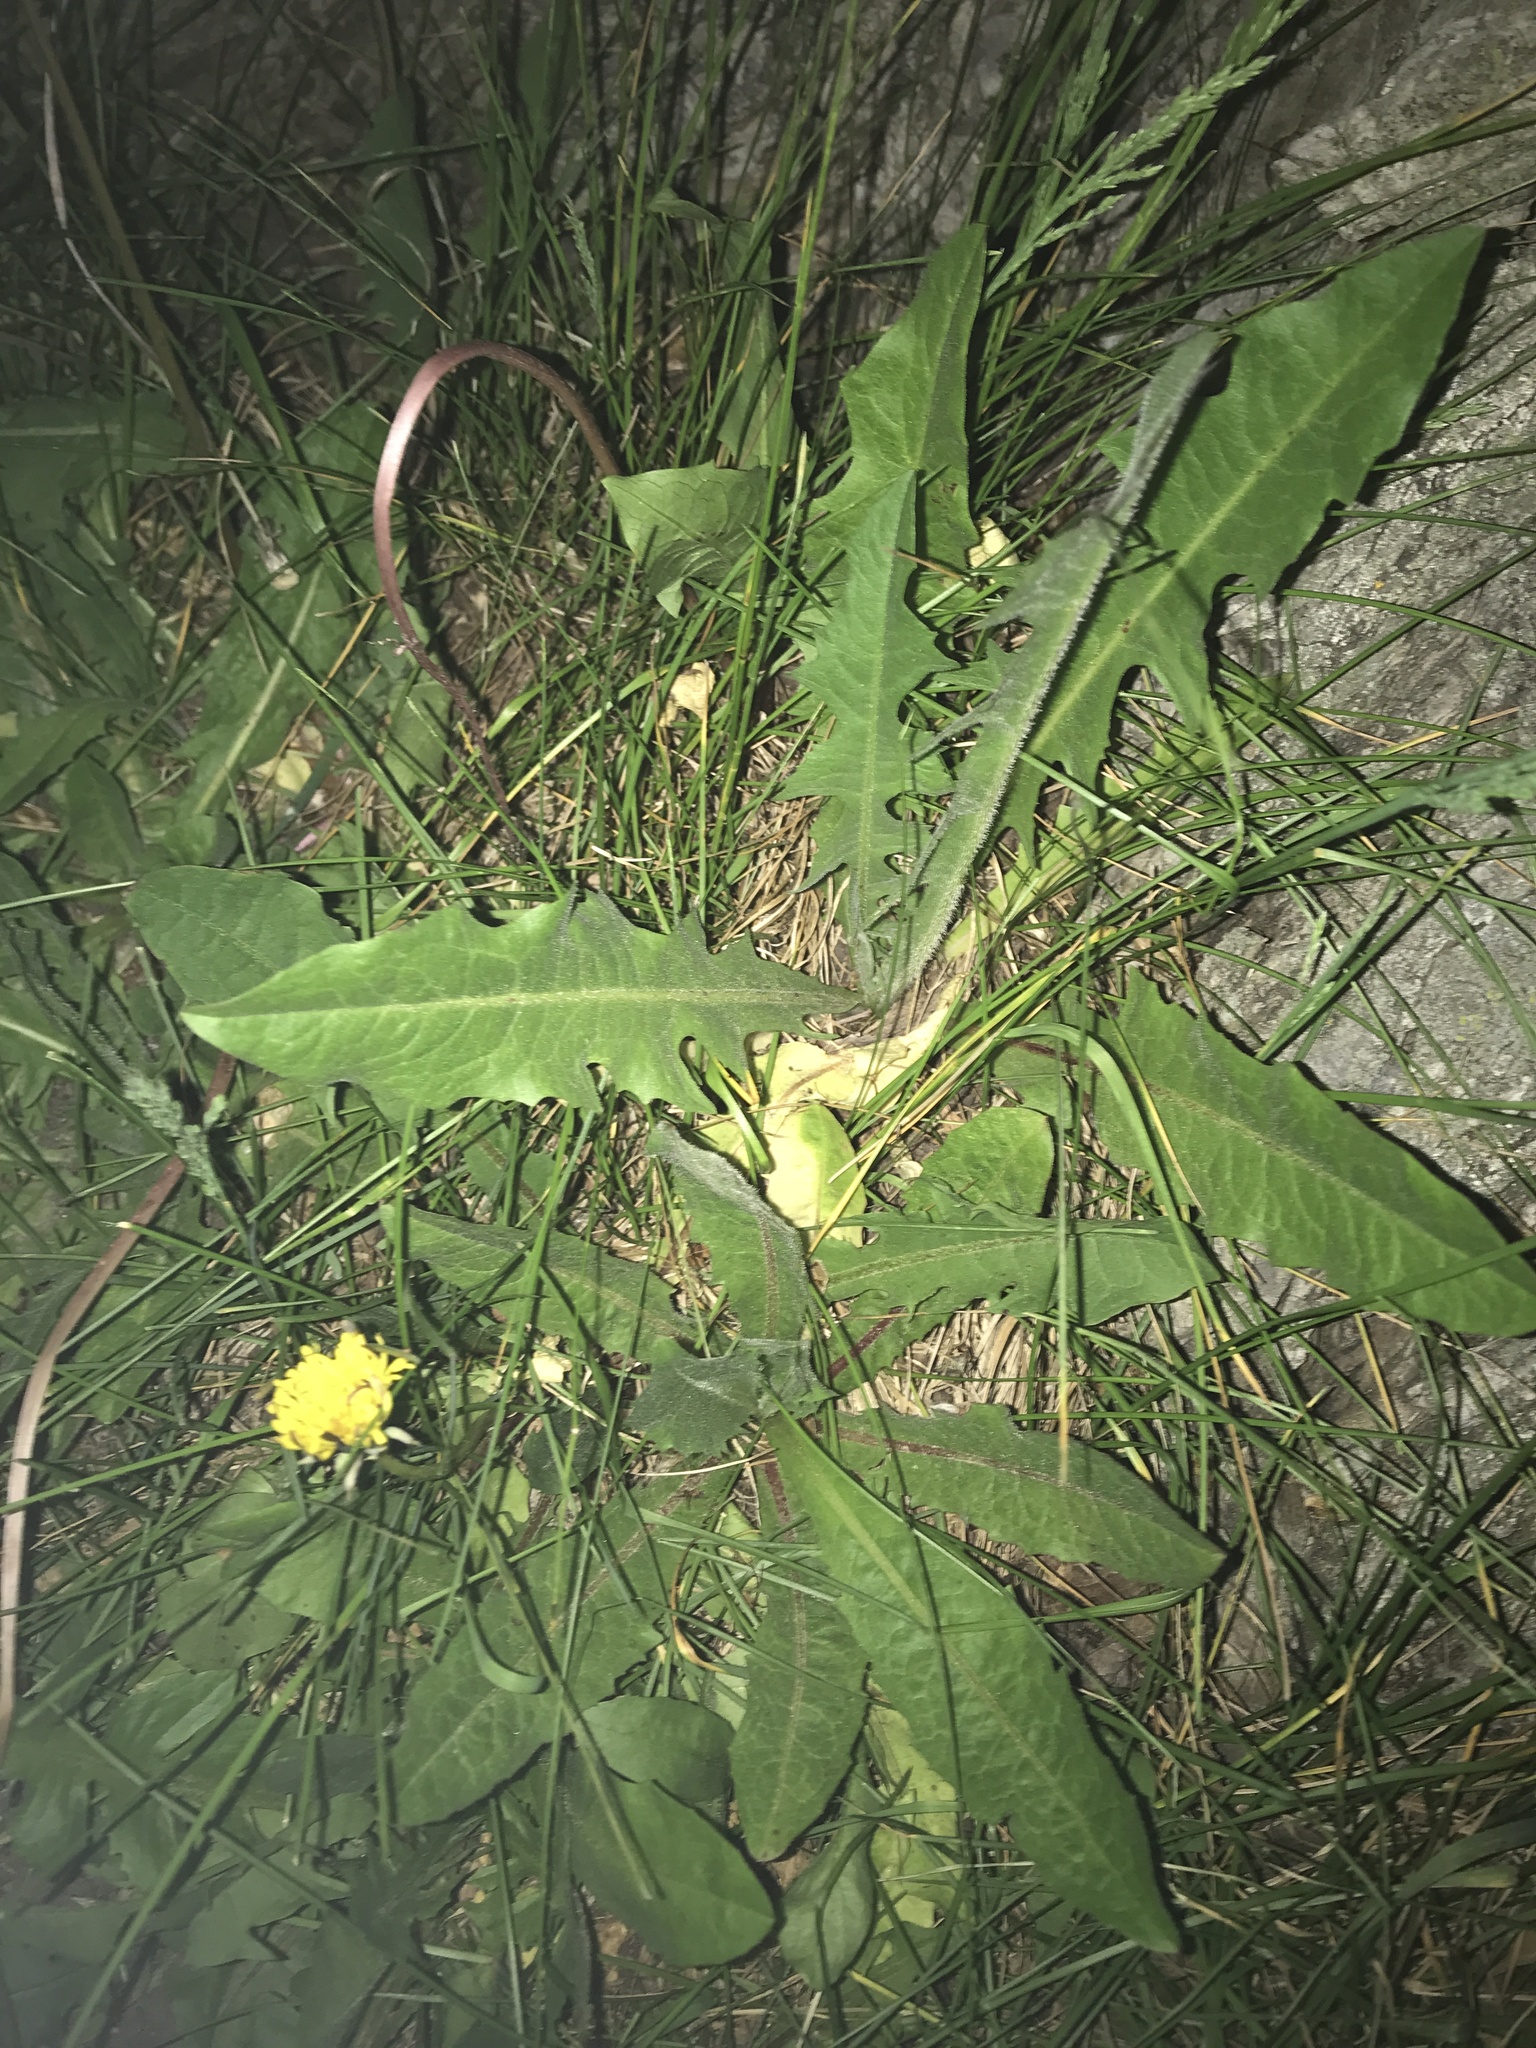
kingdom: Plantae
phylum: Tracheophyta
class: Magnoliopsida
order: Asterales
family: Asteraceae
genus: Taraxacum
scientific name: Taraxacum officinale
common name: Common dandelion
